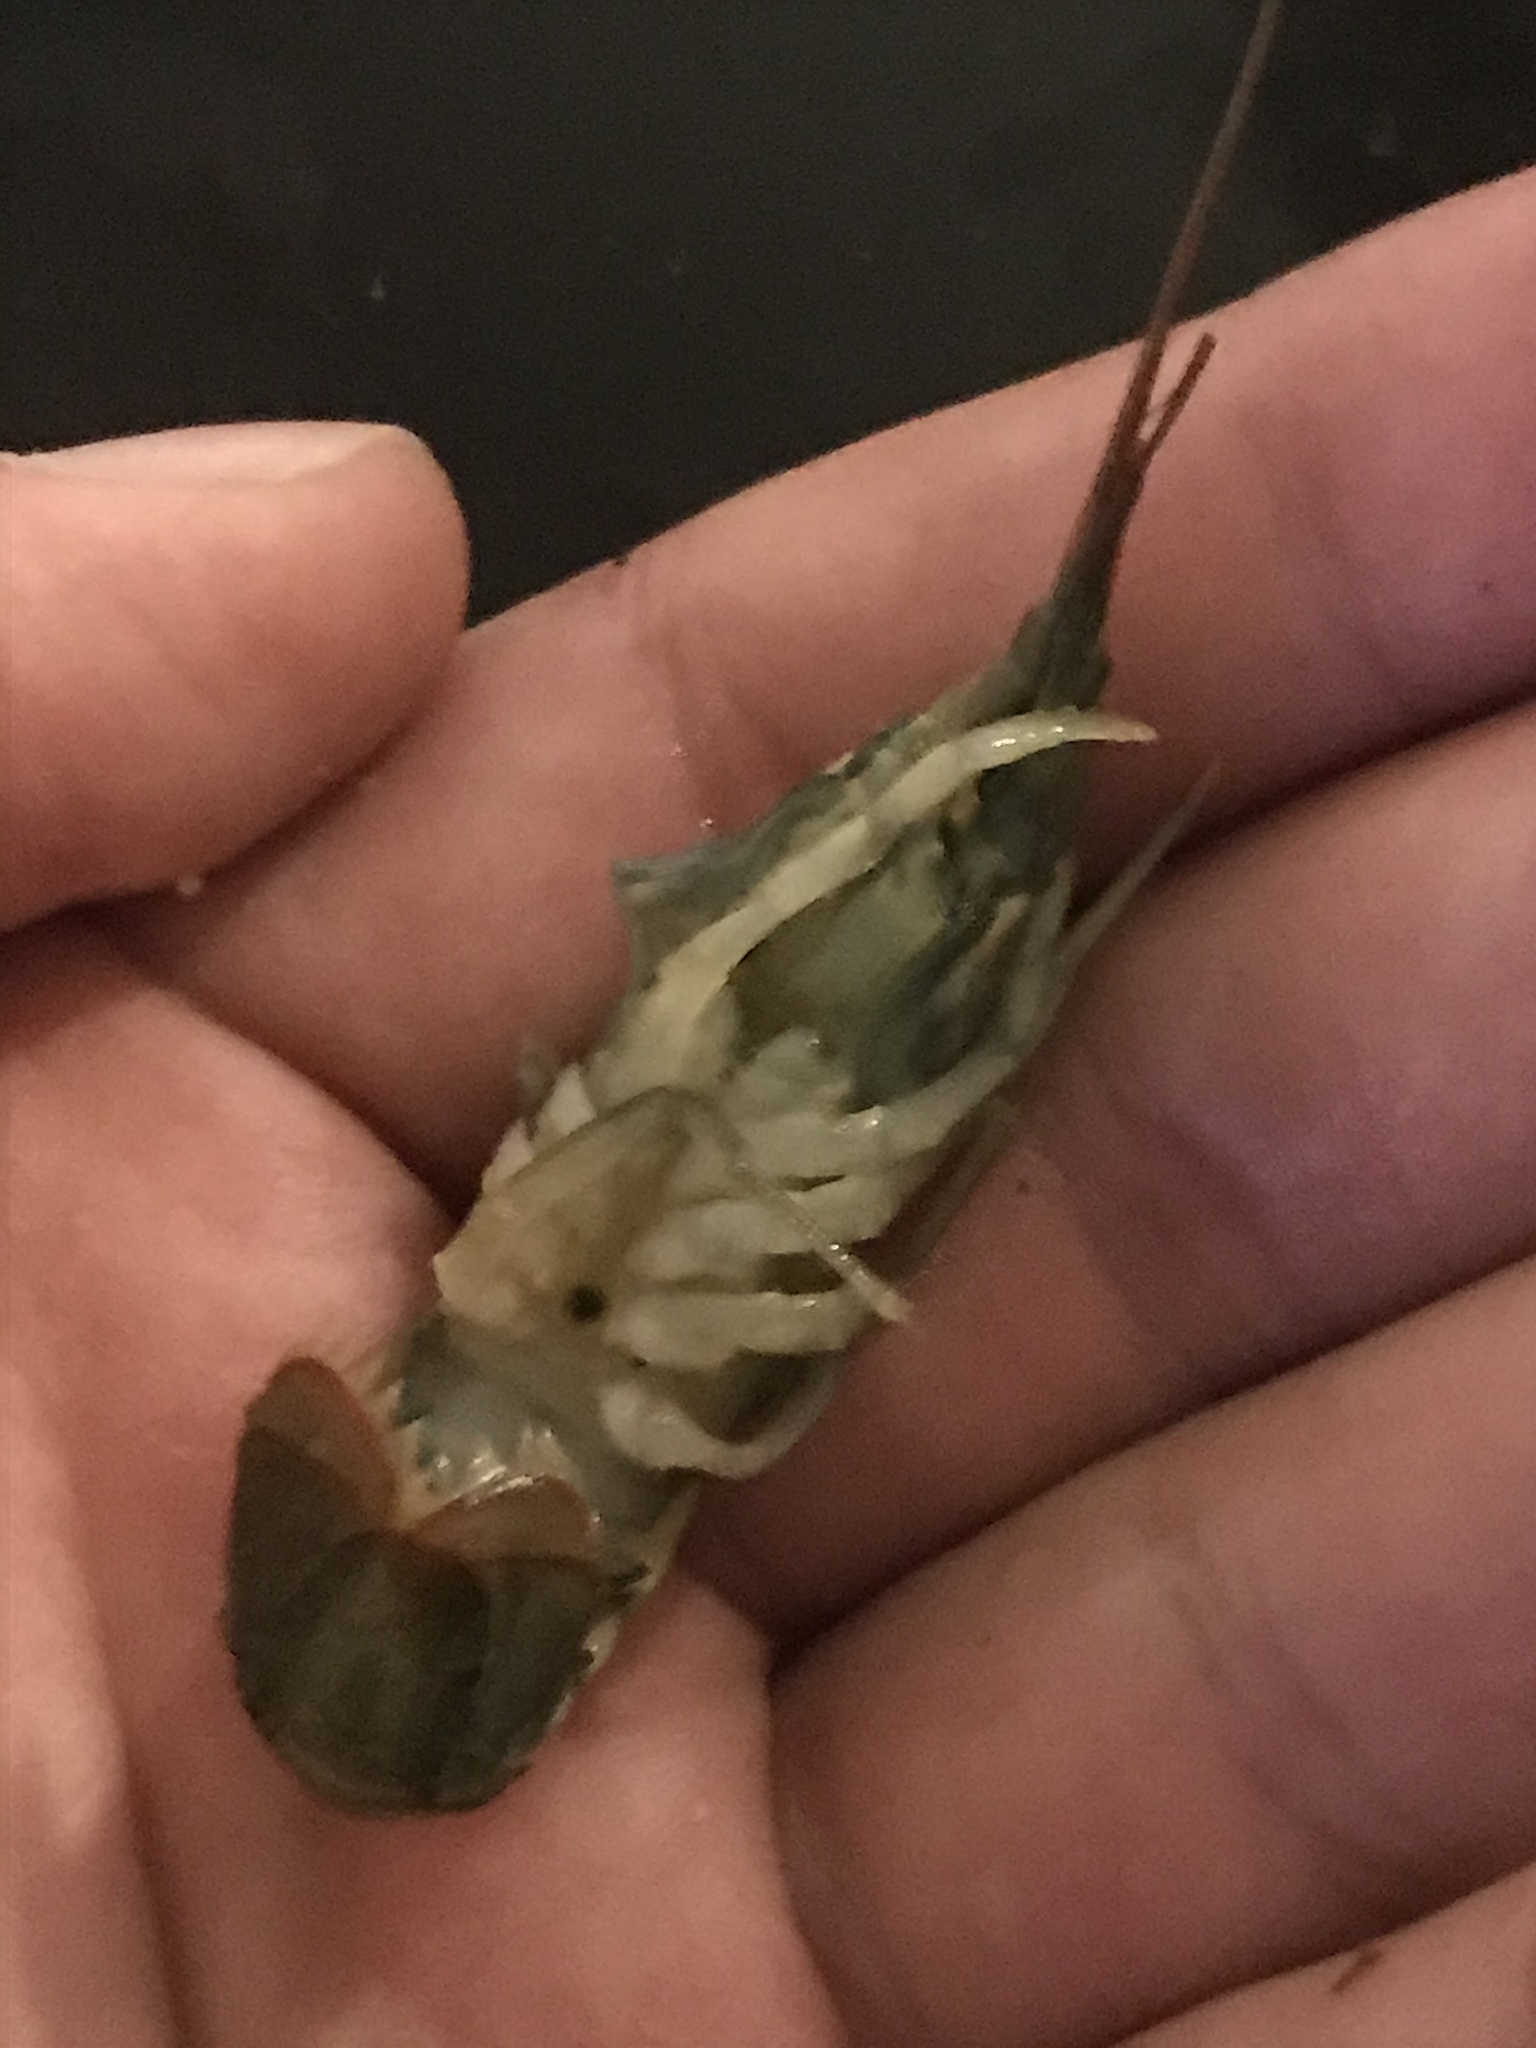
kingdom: Animalia
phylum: Arthropoda
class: Malacostraca
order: Decapoda
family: Cambaridae
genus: Faxonius
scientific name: Faxonius virilis
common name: Virile crayfish
